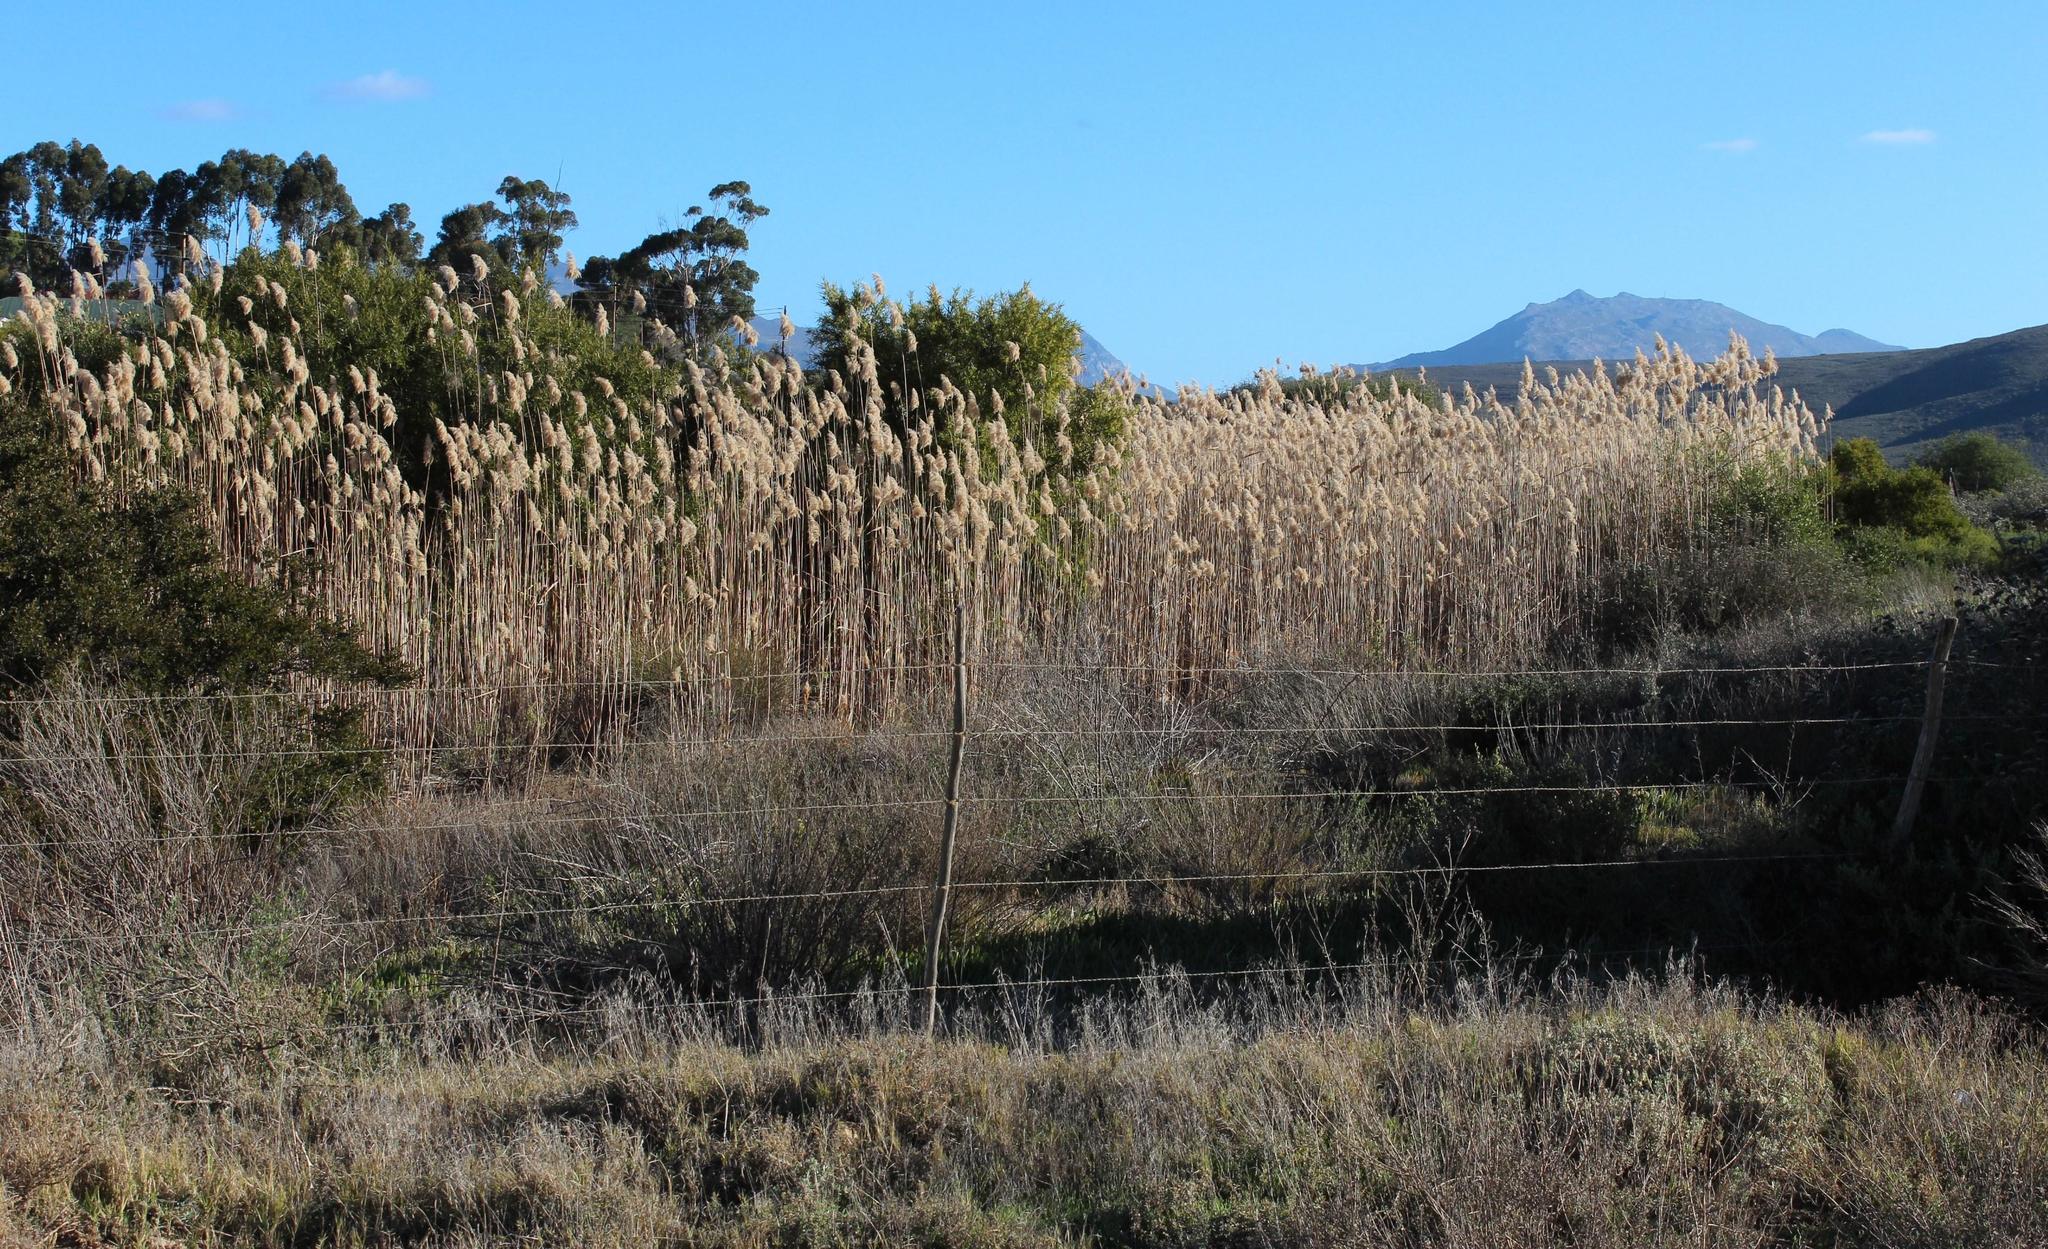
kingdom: Plantae
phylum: Tracheophyta
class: Liliopsida
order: Poales
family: Poaceae
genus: Phragmites
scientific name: Phragmites australis
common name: Common reed
